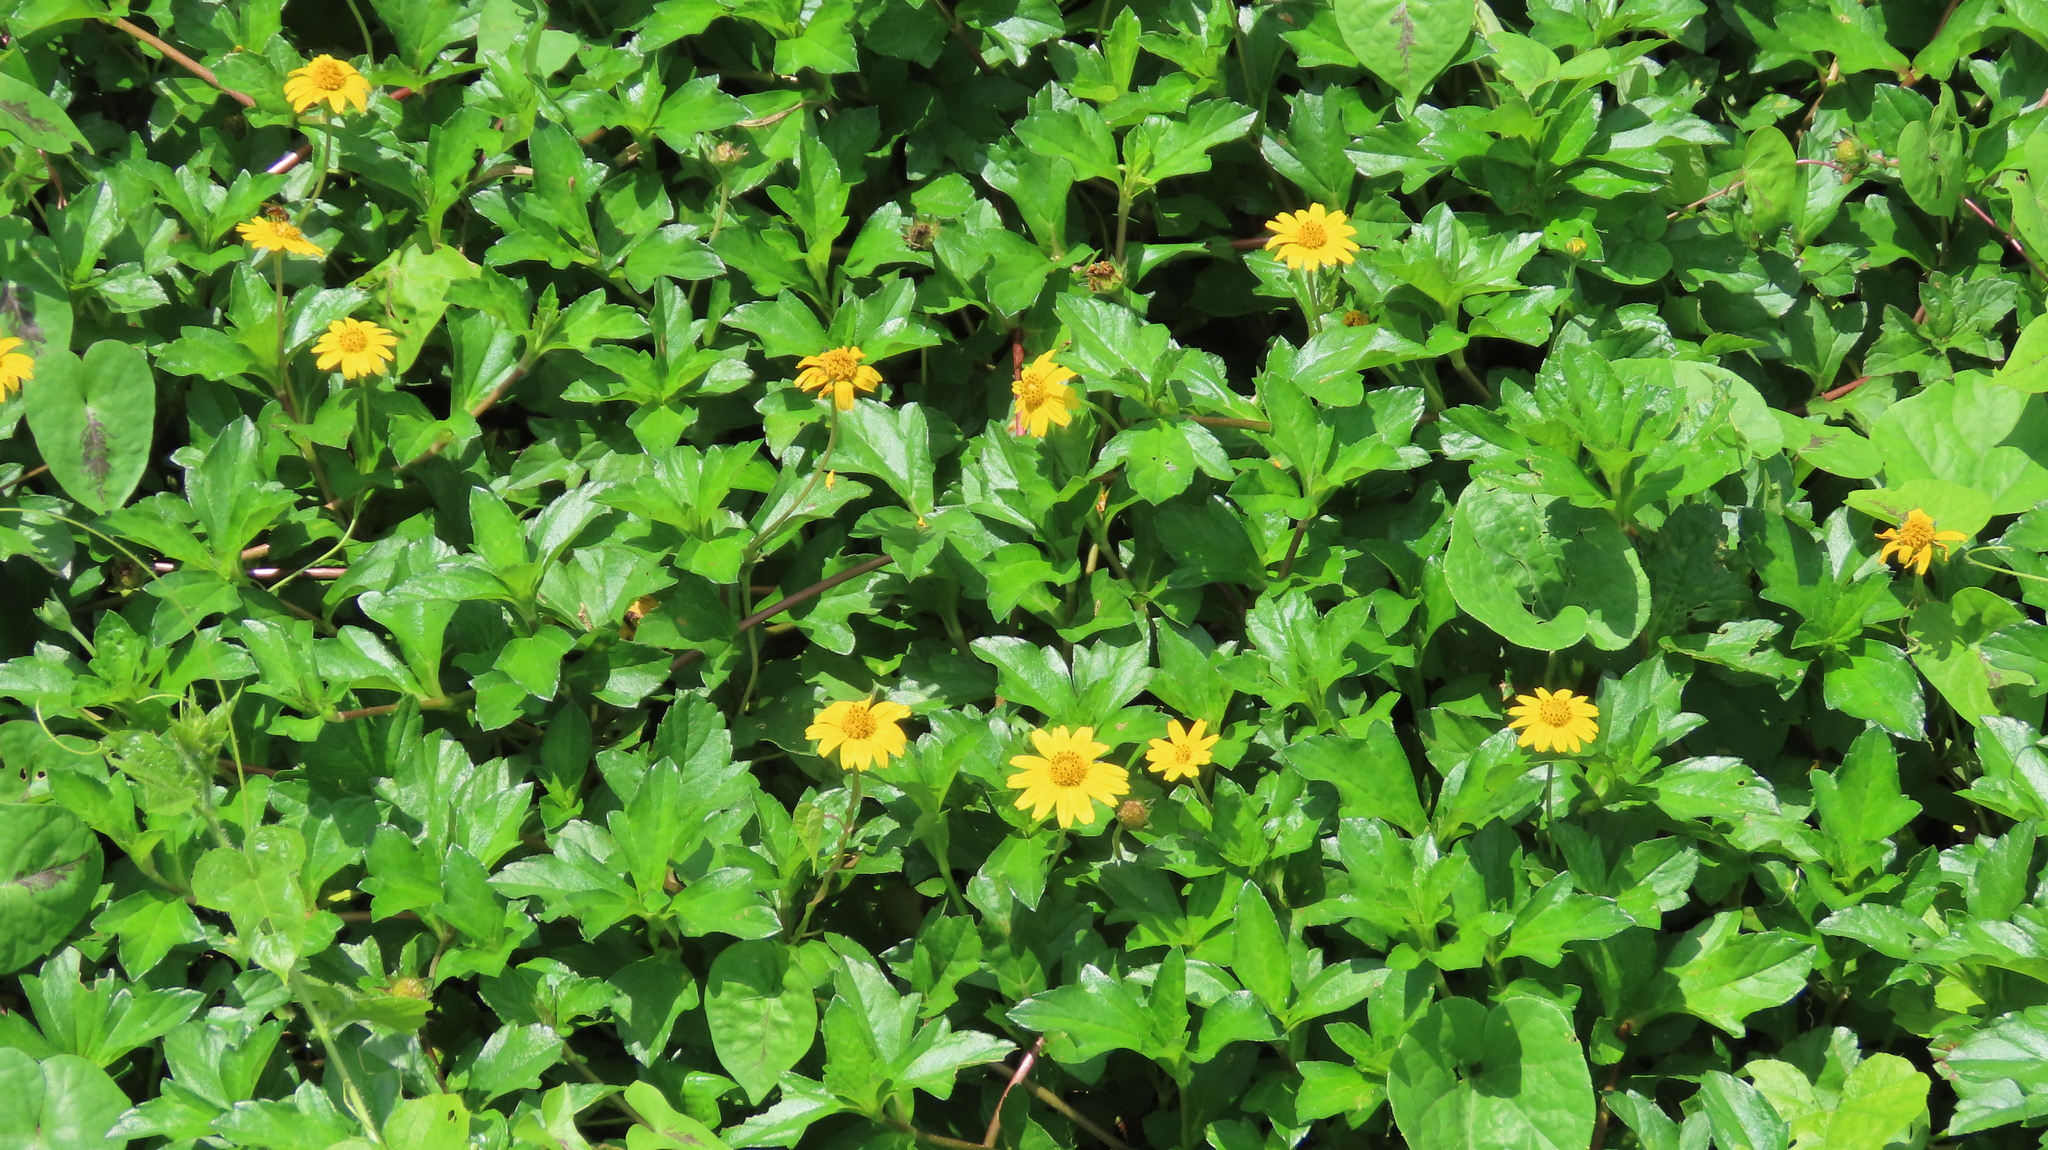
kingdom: Plantae
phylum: Tracheophyta
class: Magnoliopsida
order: Asterales
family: Asteraceae
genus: Sphagneticola
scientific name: Sphagneticola trilobata
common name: Bay biscayne creeping-oxeye
